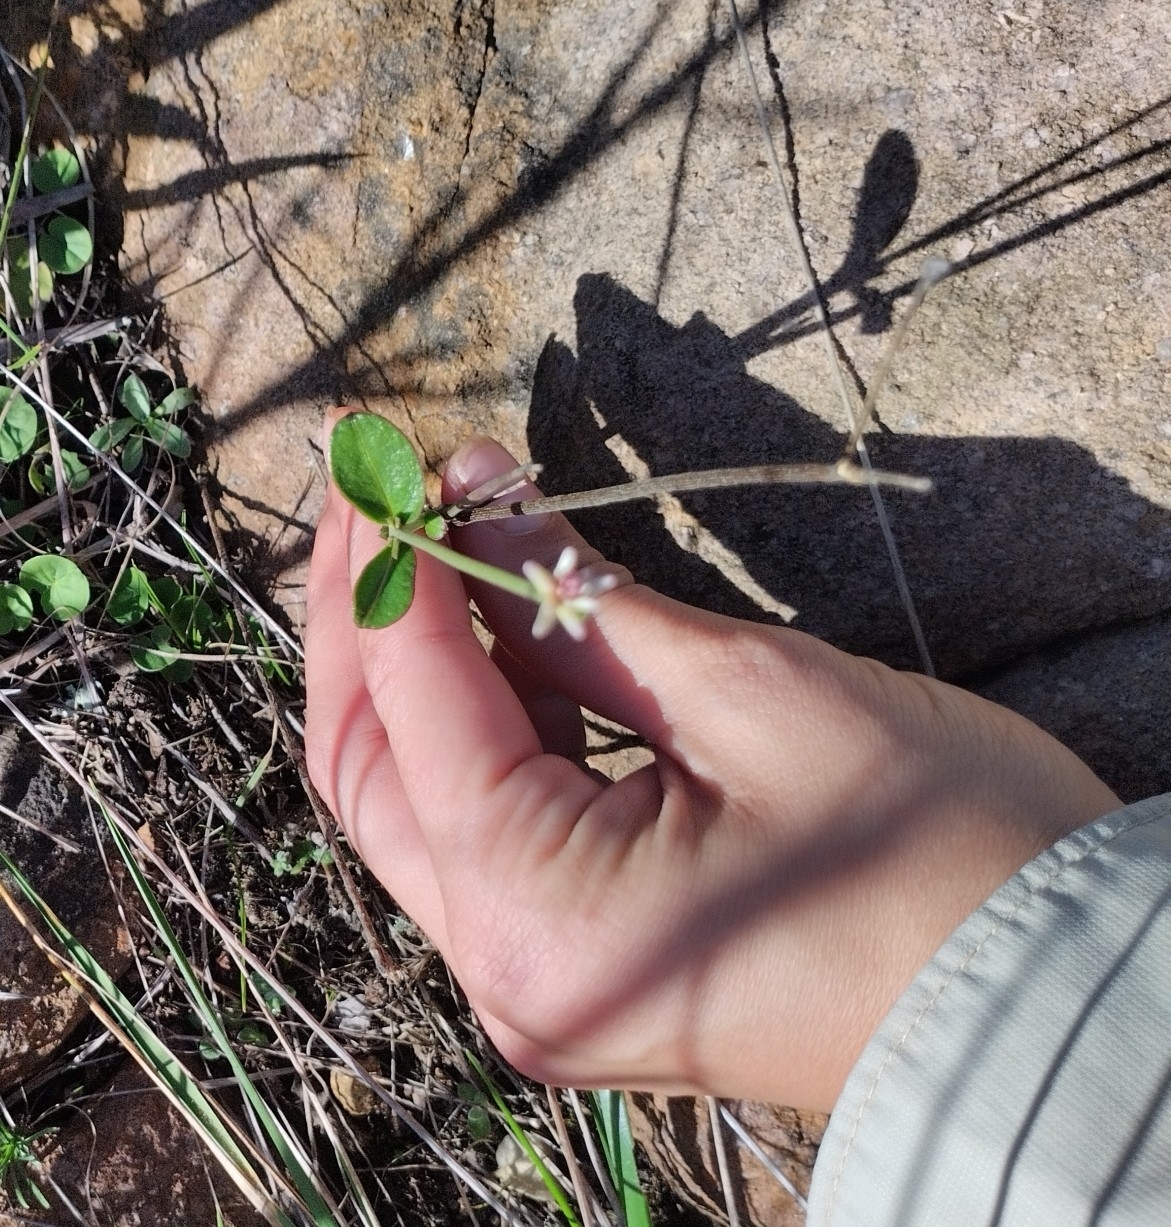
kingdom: Plantae
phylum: Tracheophyta
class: Magnoliopsida
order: Caryophyllales
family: Amaranthaceae
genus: Pfaffia
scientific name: Pfaffia tuberosa
